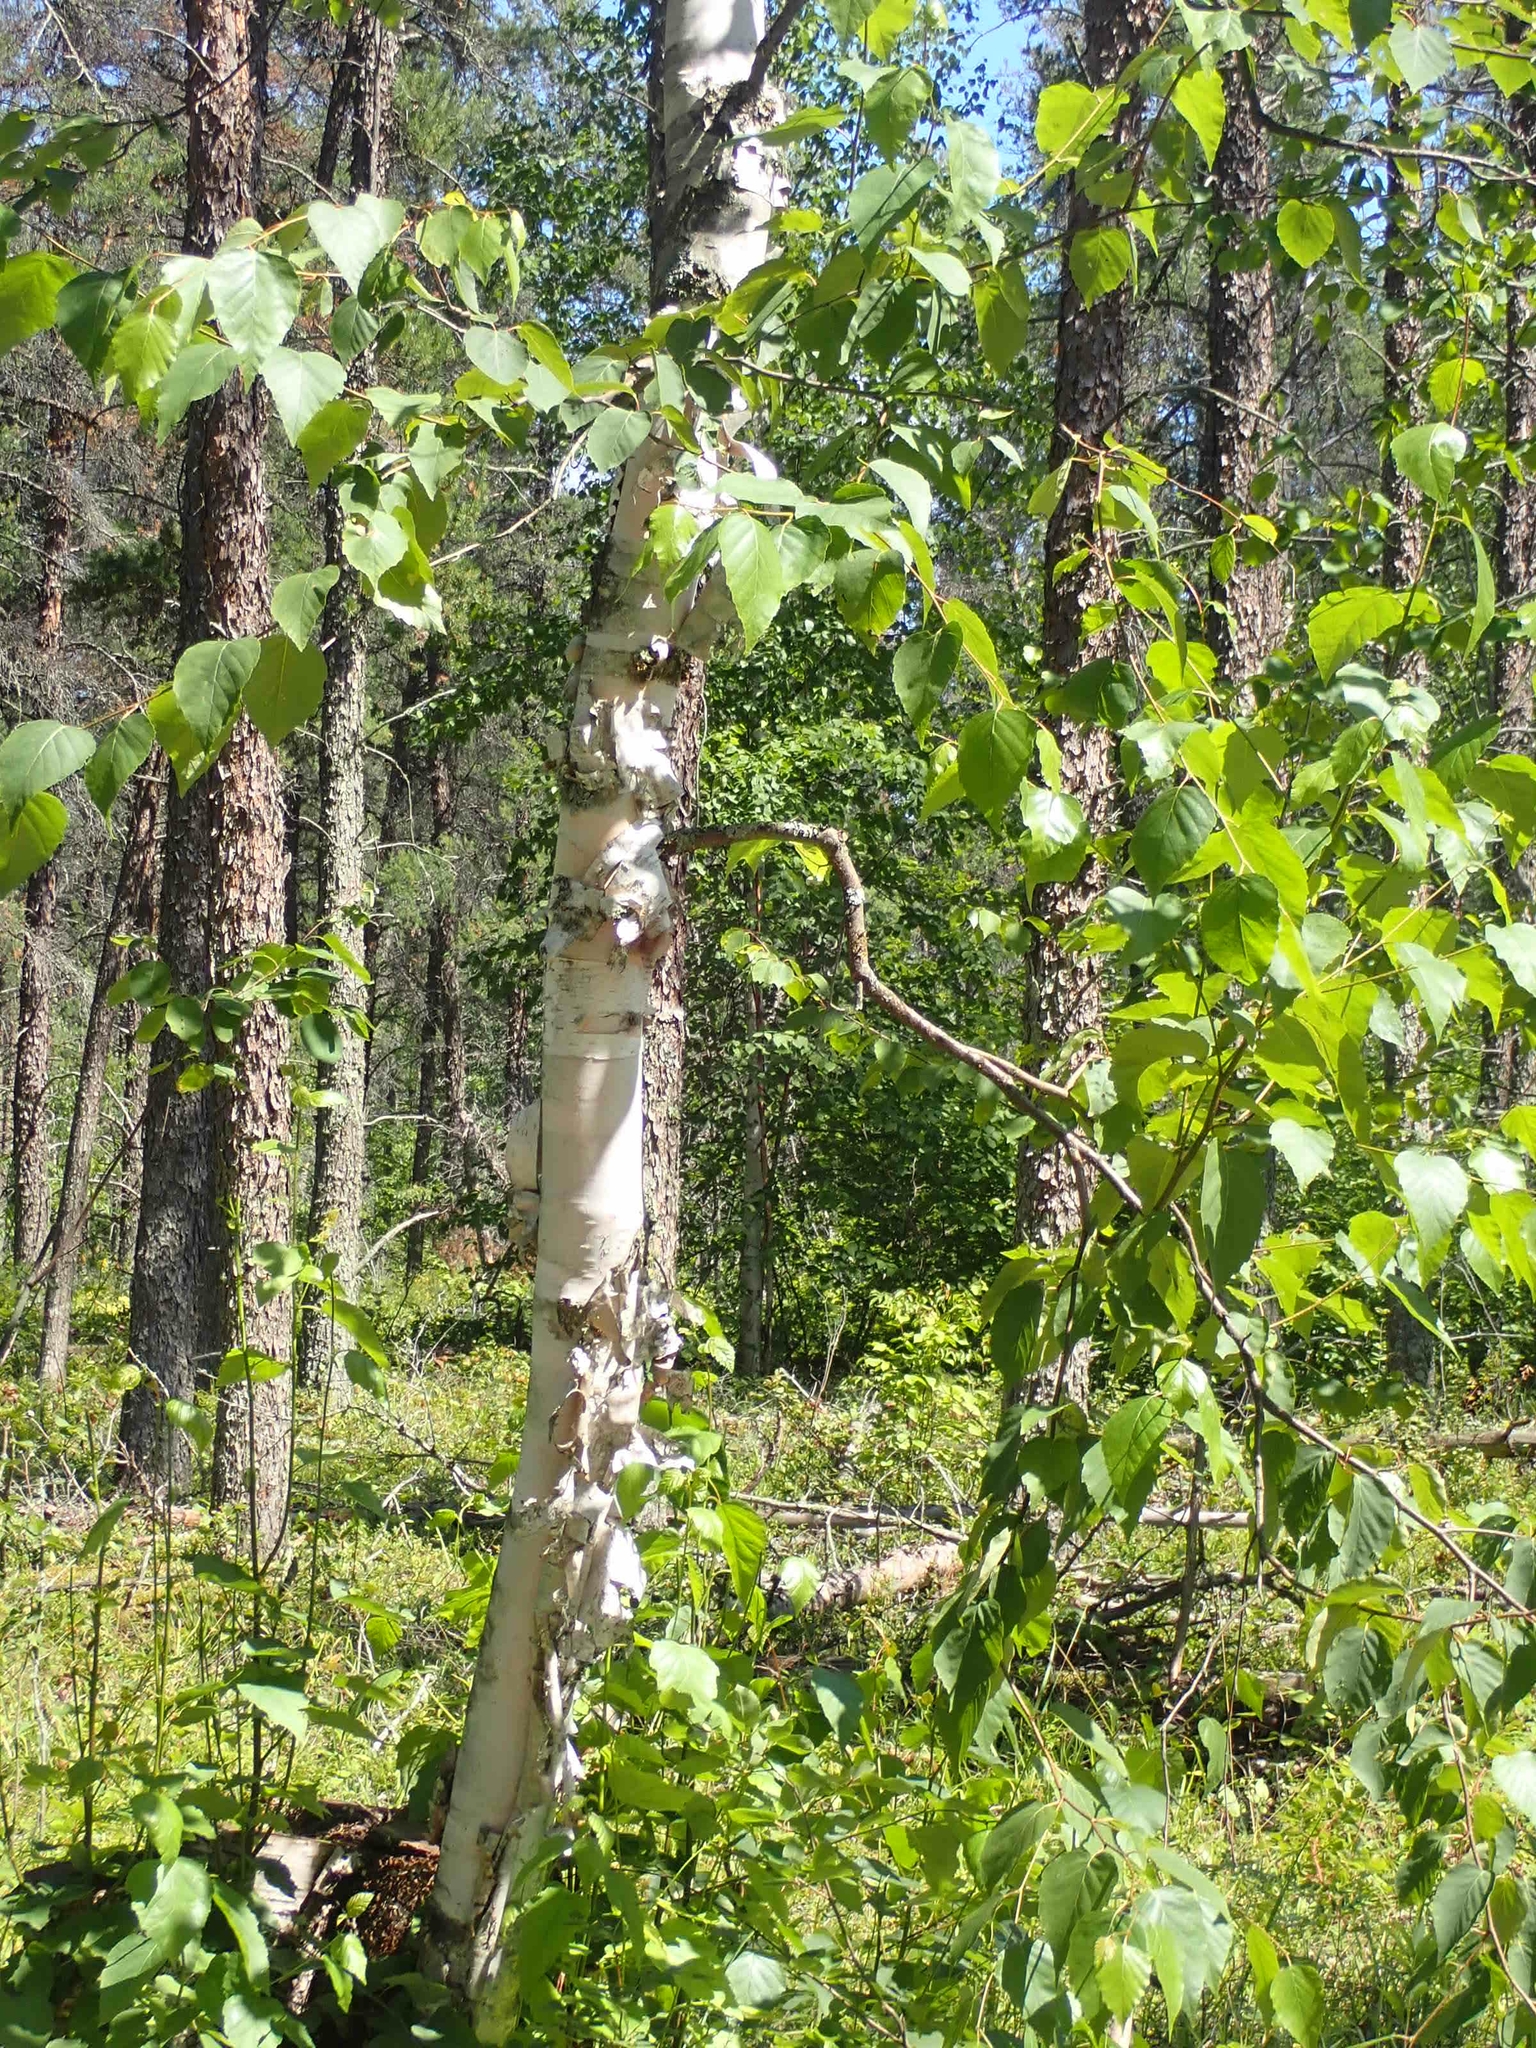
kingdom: Plantae
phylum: Tracheophyta
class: Magnoliopsida
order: Fagales
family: Betulaceae
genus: Betula
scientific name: Betula papyrifera
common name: Paper birch
